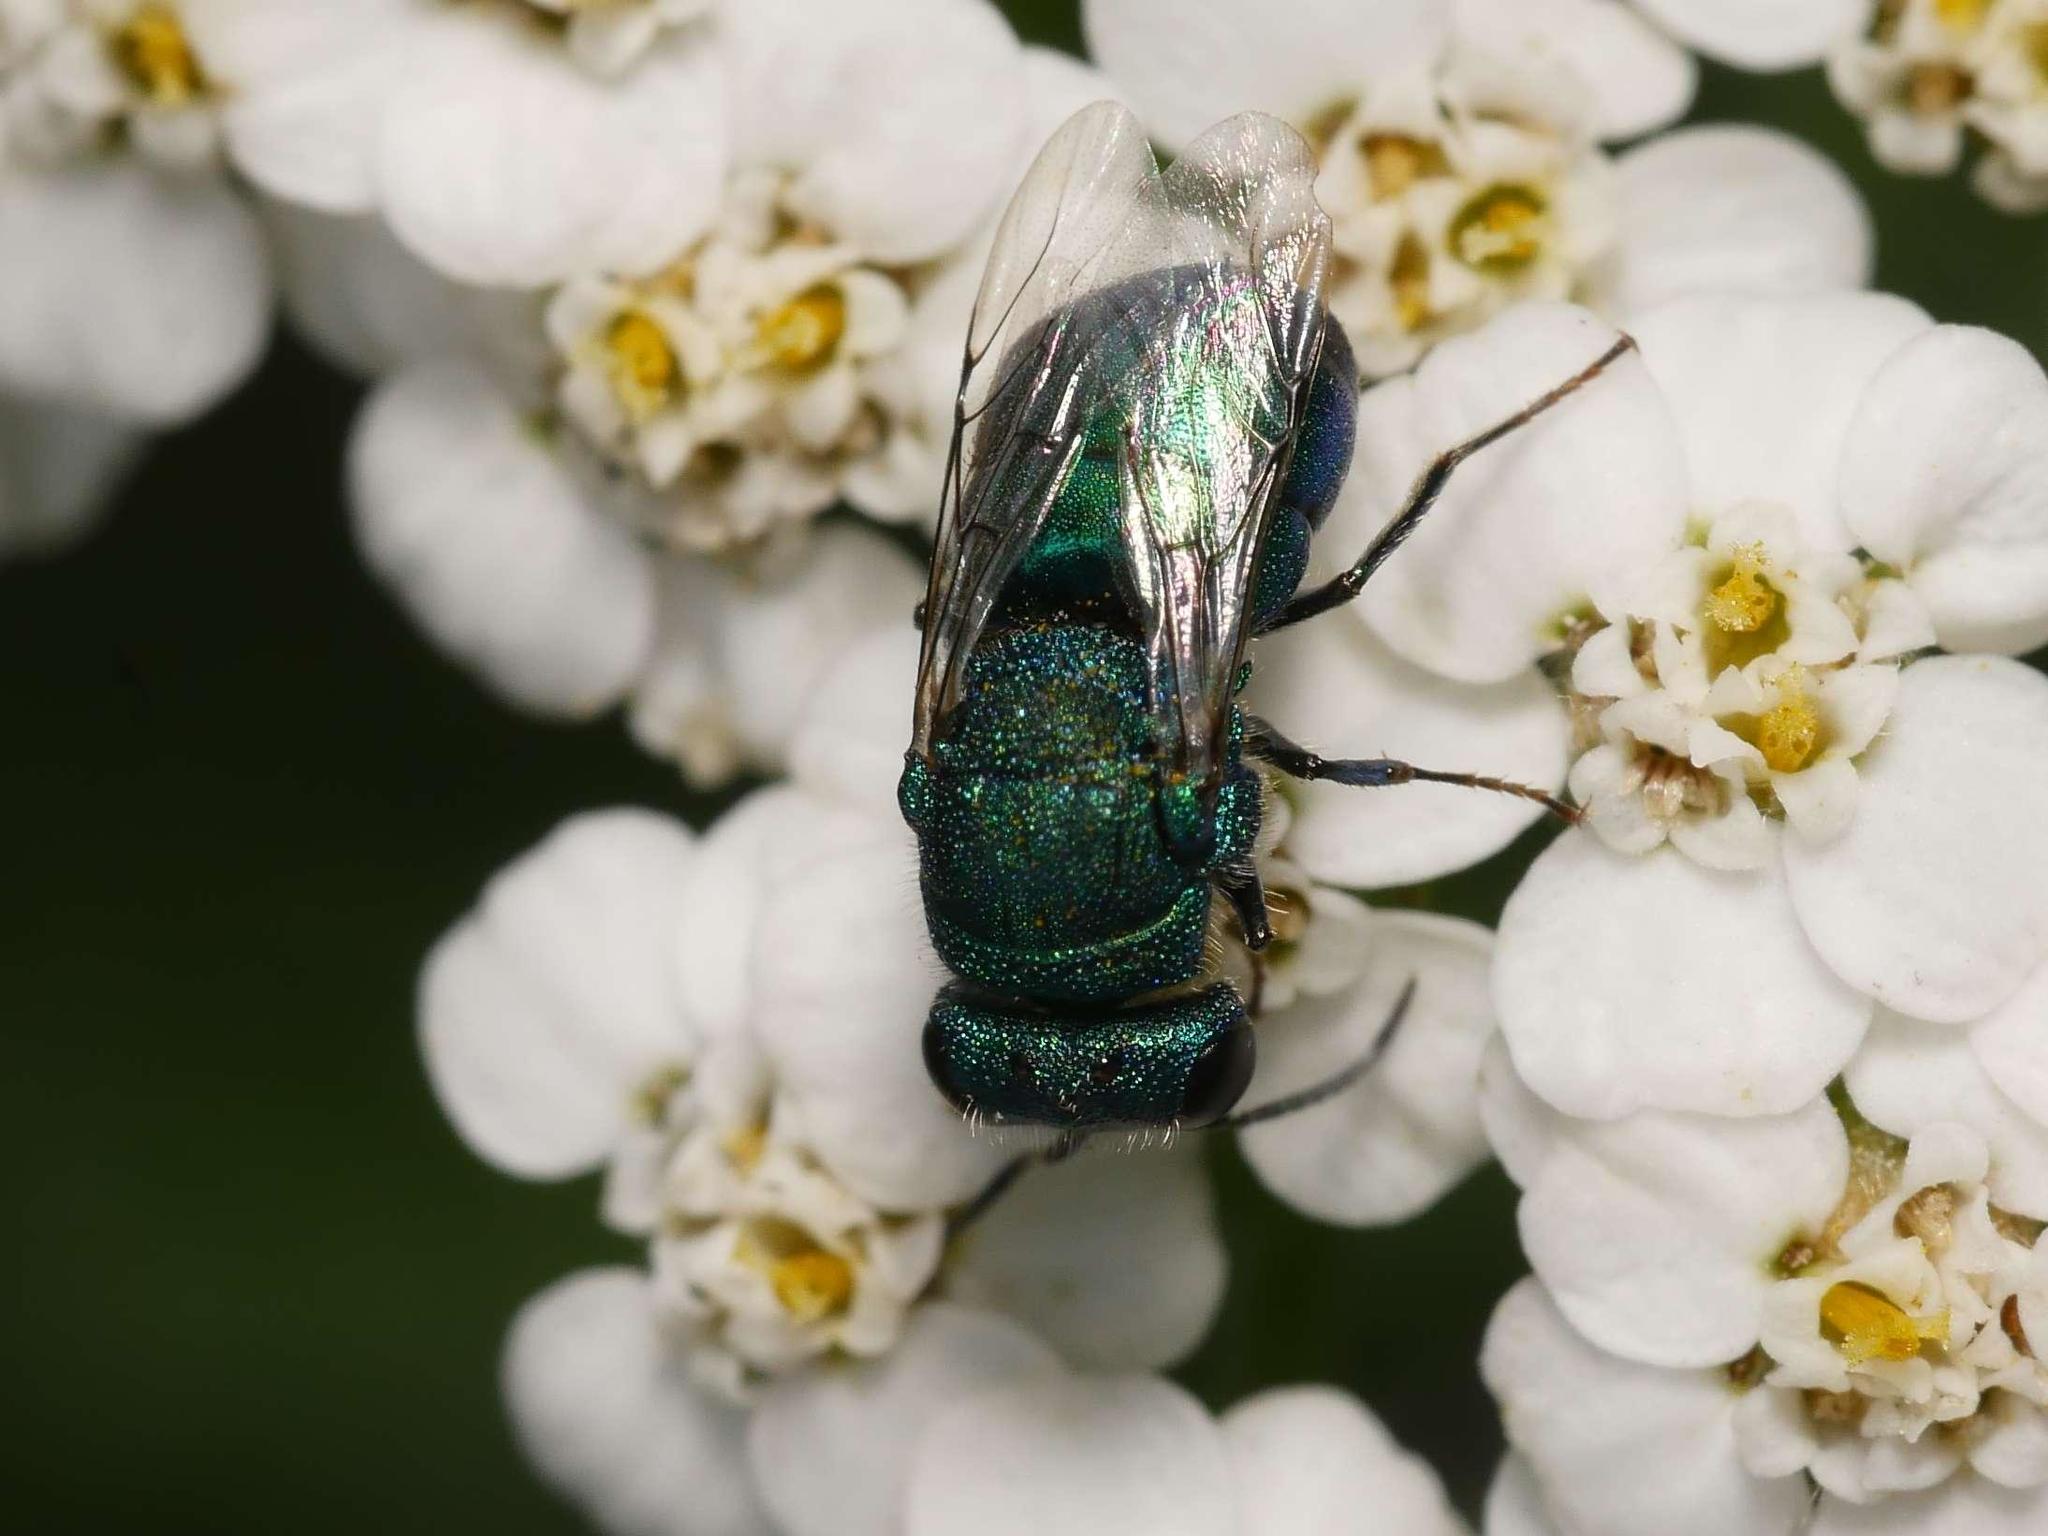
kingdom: Animalia
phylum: Arthropoda
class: Insecta
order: Hymenoptera
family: Chrysididae
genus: Spinolia
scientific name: Spinolia unicolor
